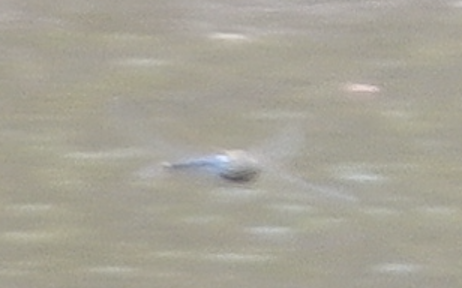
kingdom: Animalia
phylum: Arthropoda
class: Insecta
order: Odonata
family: Aeshnidae
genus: Anax
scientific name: Anax junius
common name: Common green darner
